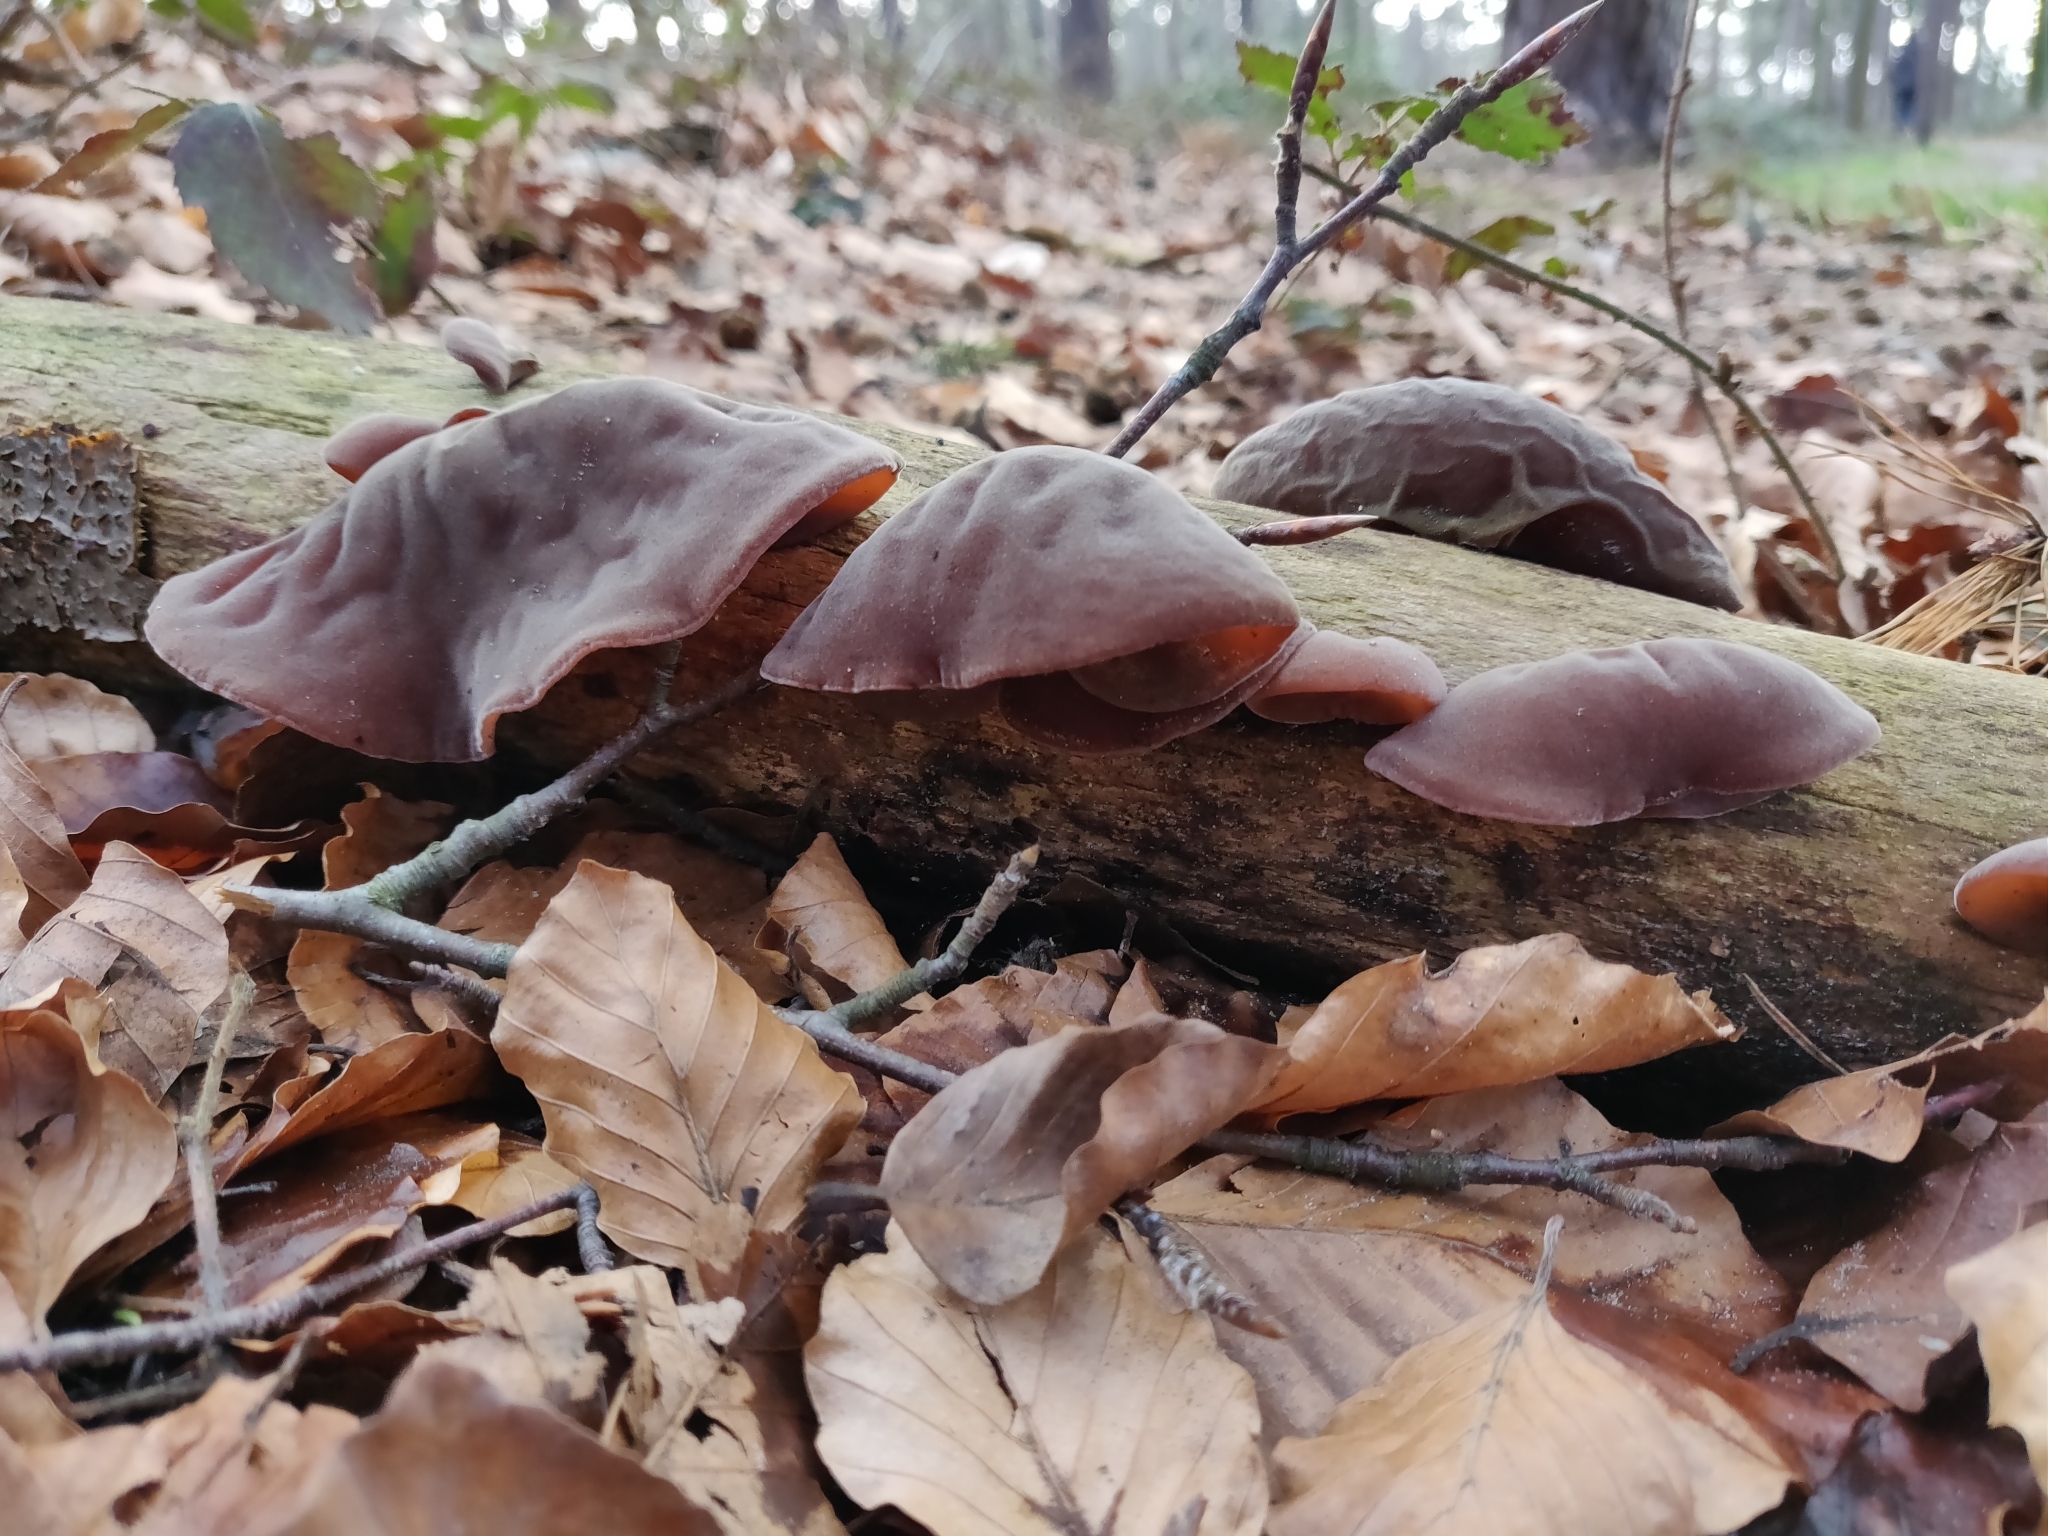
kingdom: Fungi
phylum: Basidiomycota
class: Agaricomycetes
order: Auriculariales
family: Auriculariaceae
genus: Auricularia
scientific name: Auricularia auricula-judae
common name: Jelly ear
